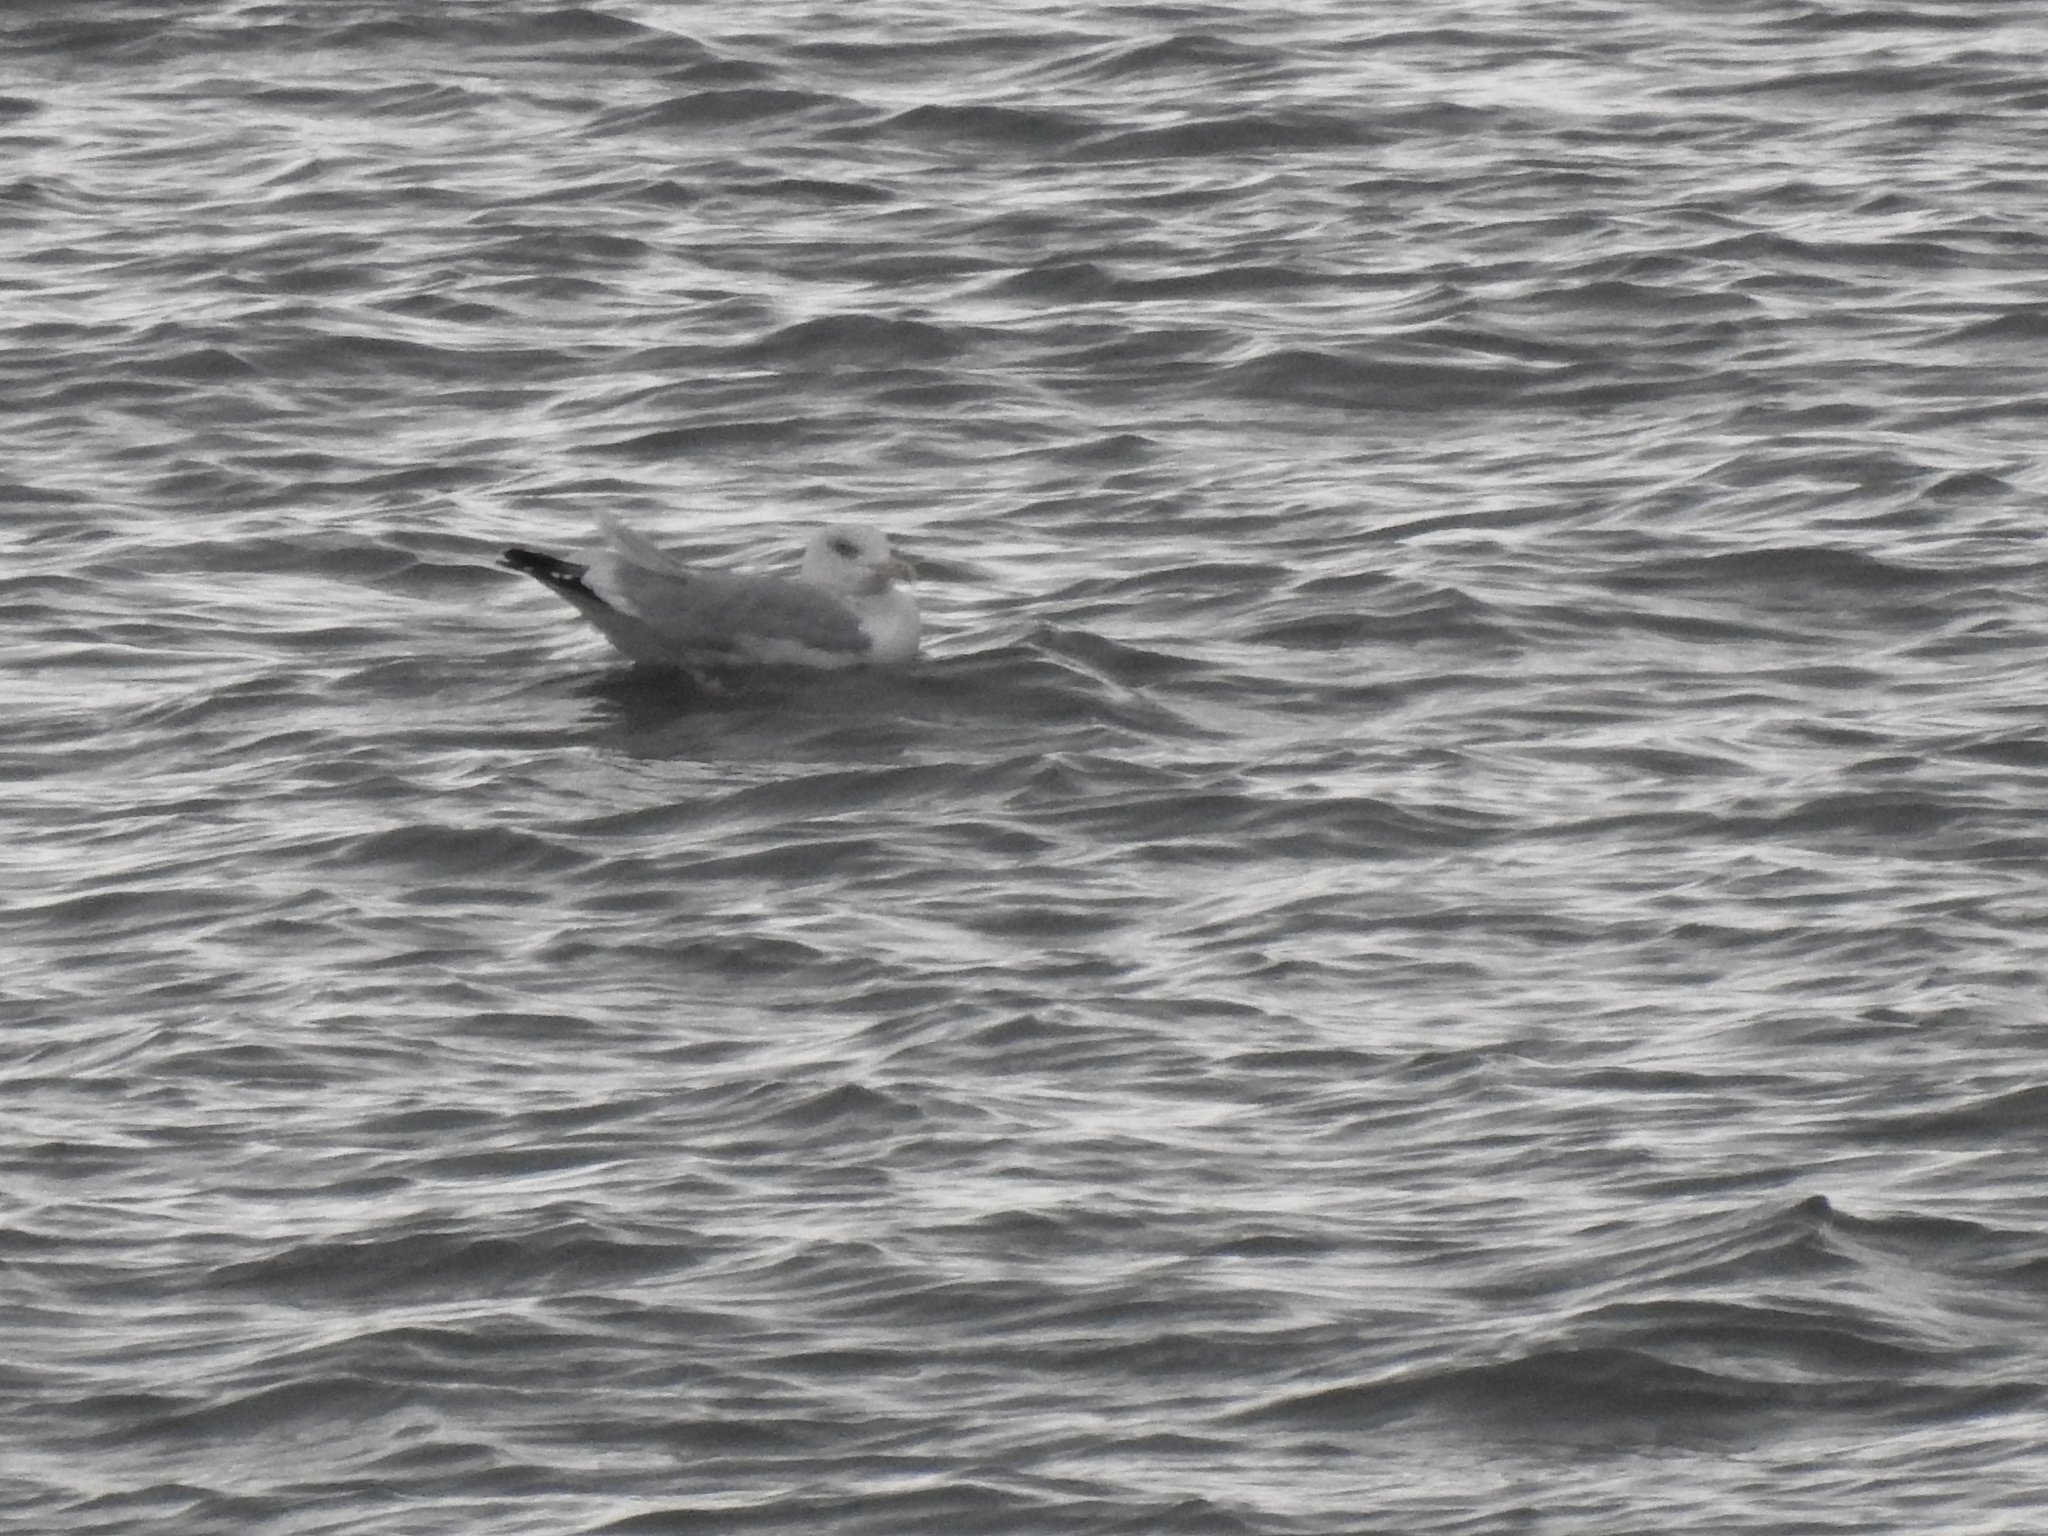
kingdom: Animalia
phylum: Chordata
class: Aves
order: Charadriiformes
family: Laridae
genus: Larus
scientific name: Larus argentatus
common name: Herring gull
